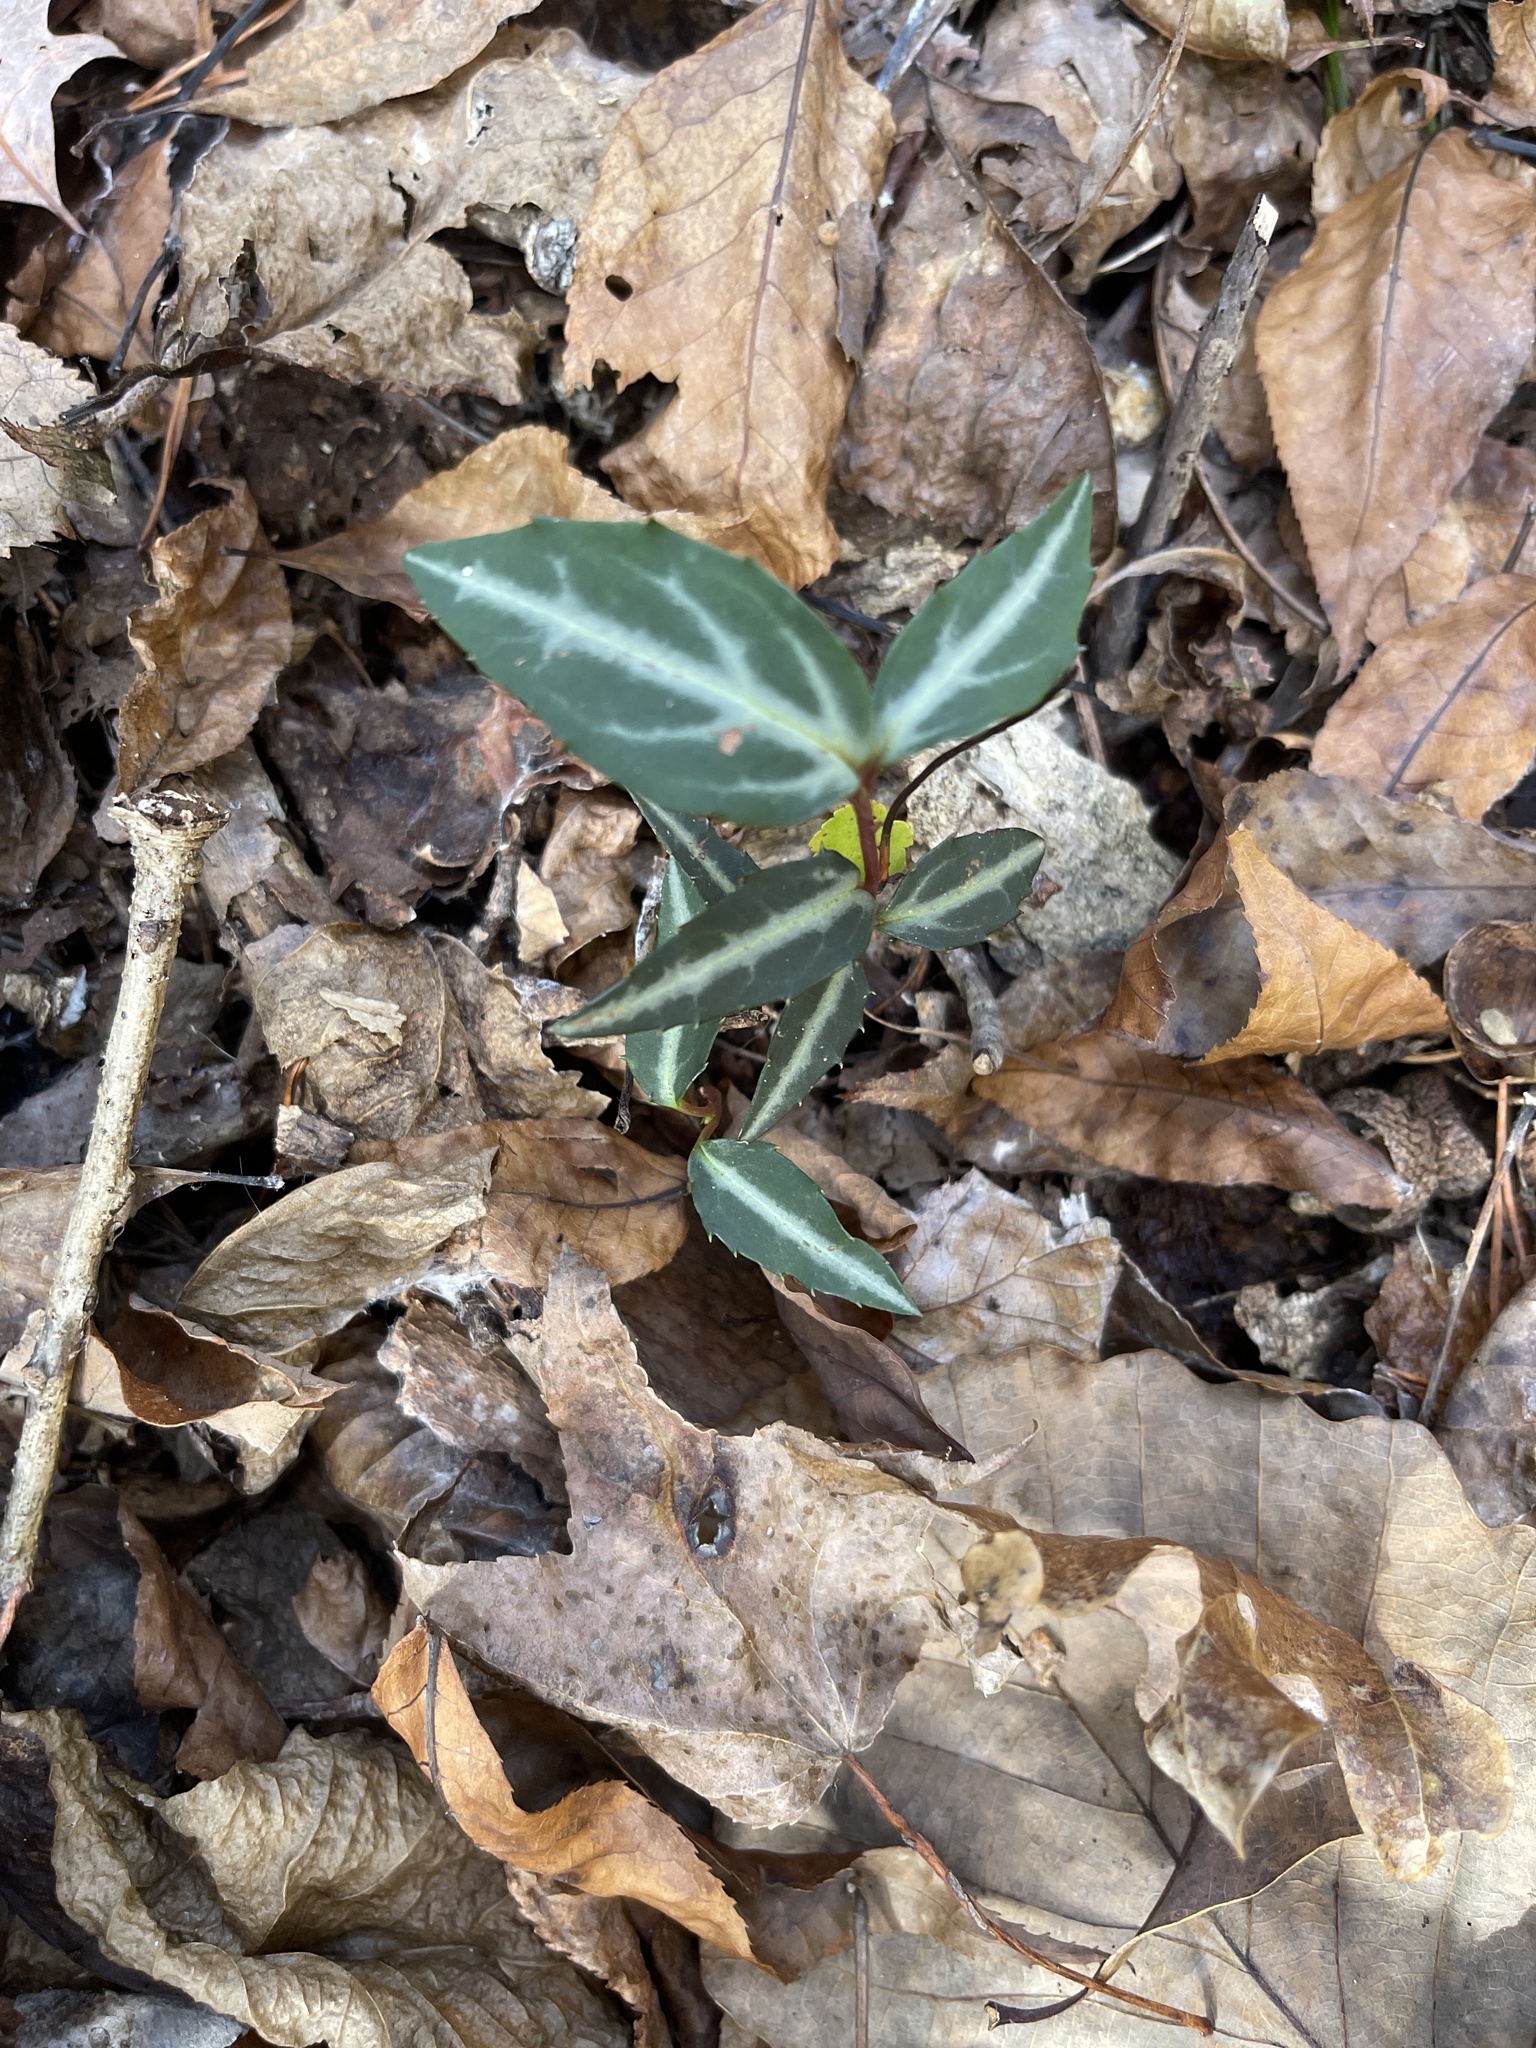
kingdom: Plantae
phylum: Tracheophyta
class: Magnoliopsida
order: Ericales
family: Ericaceae
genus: Chimaphila
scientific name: Chimaphila maculata
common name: Spotted pipsissewa
